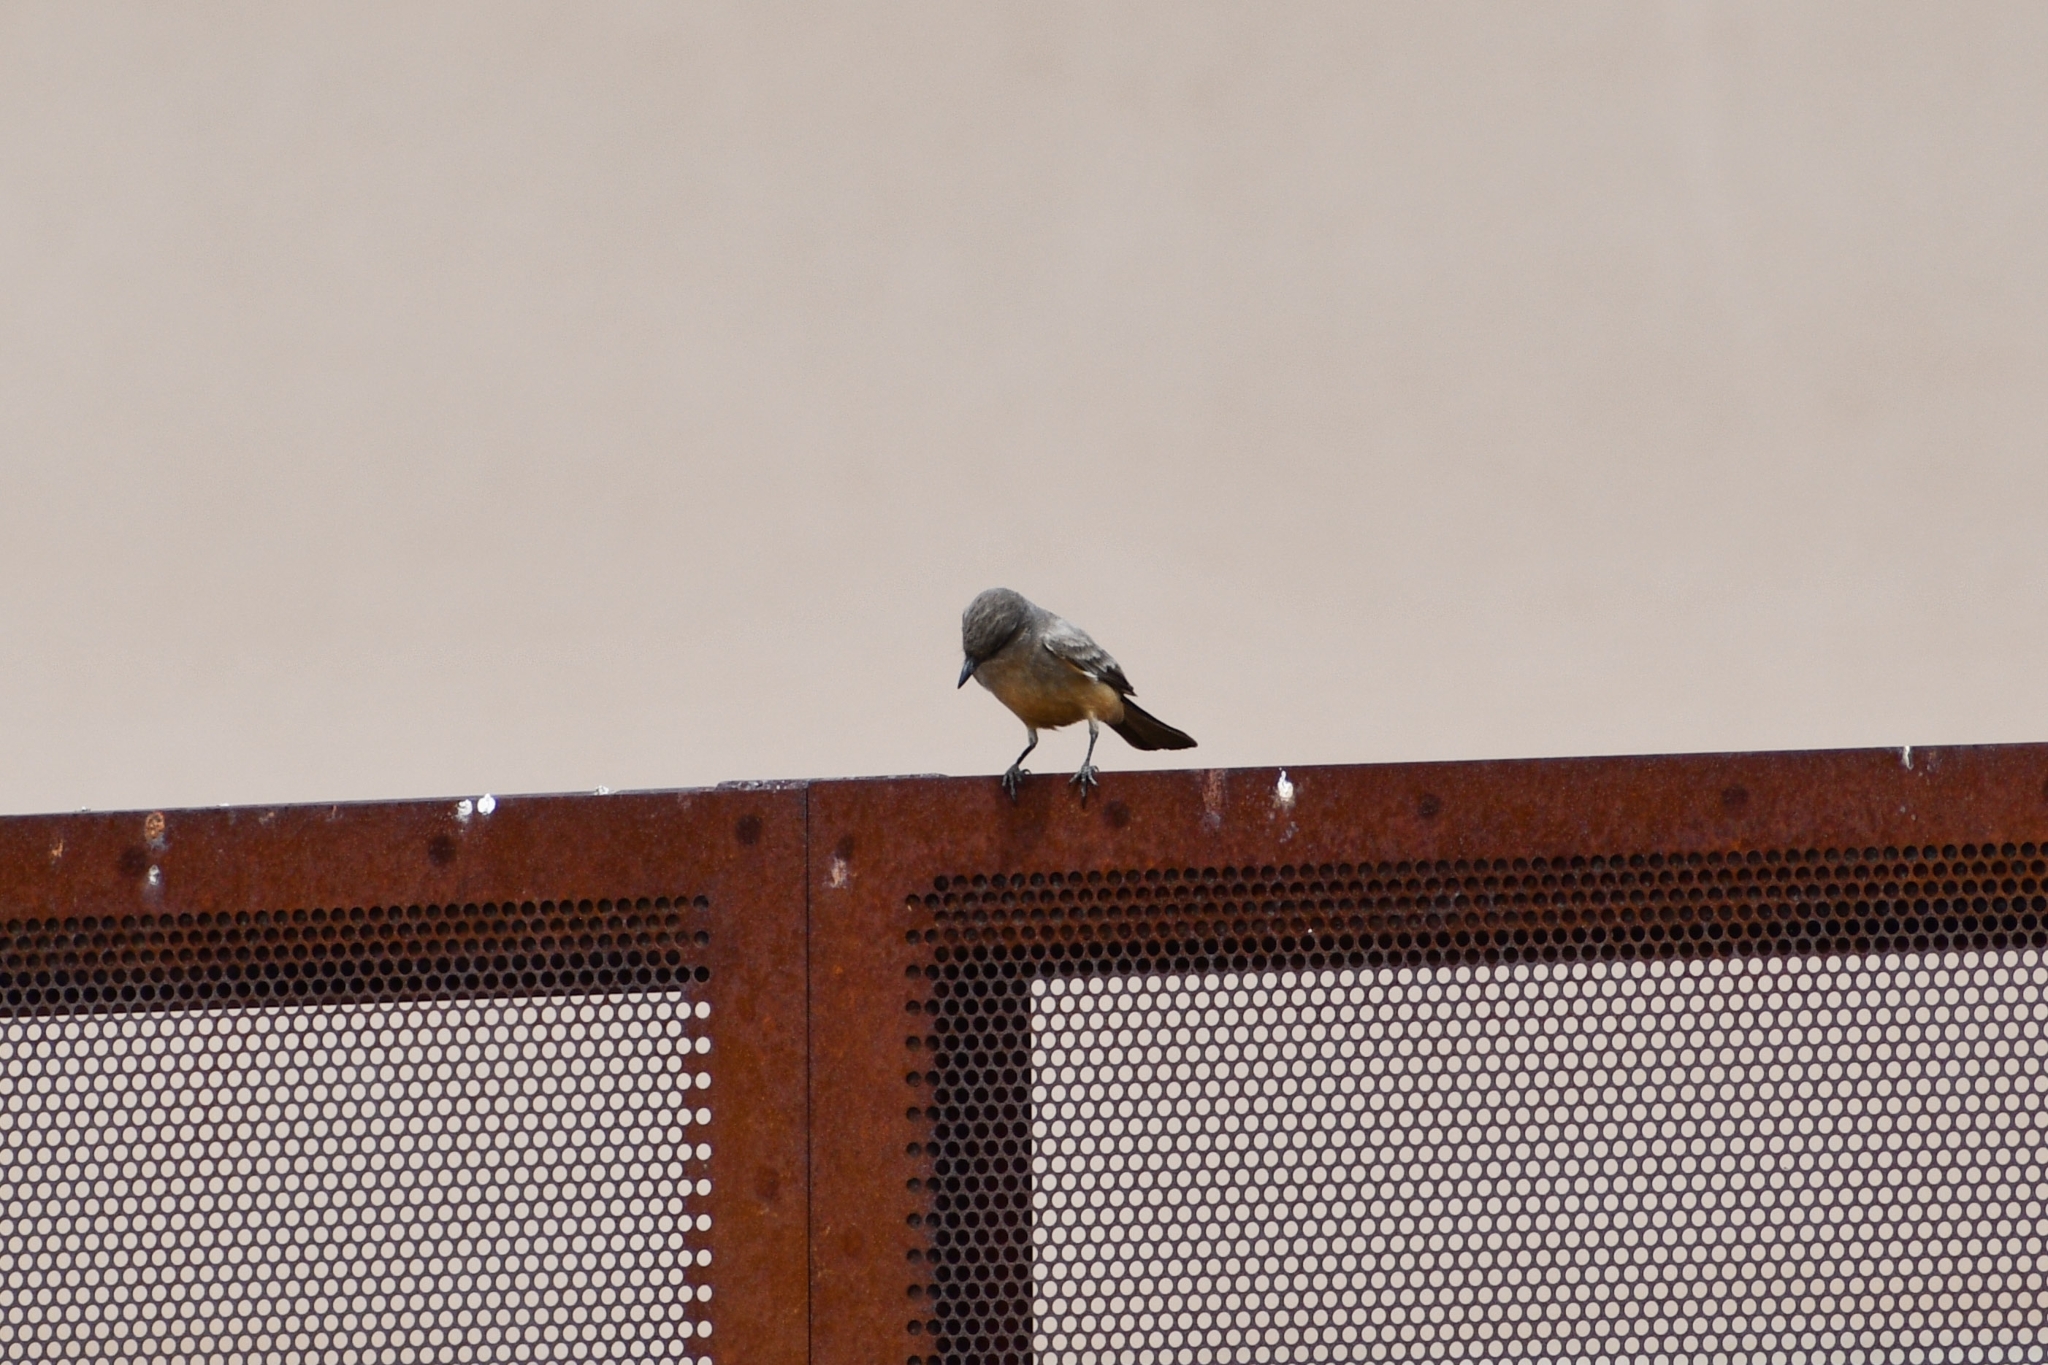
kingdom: Animalia
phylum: Chordata
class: Aves
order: Passeriformes
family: Tyrannidae
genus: Sayornis
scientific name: Sayornis saya
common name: Say's phoebe
